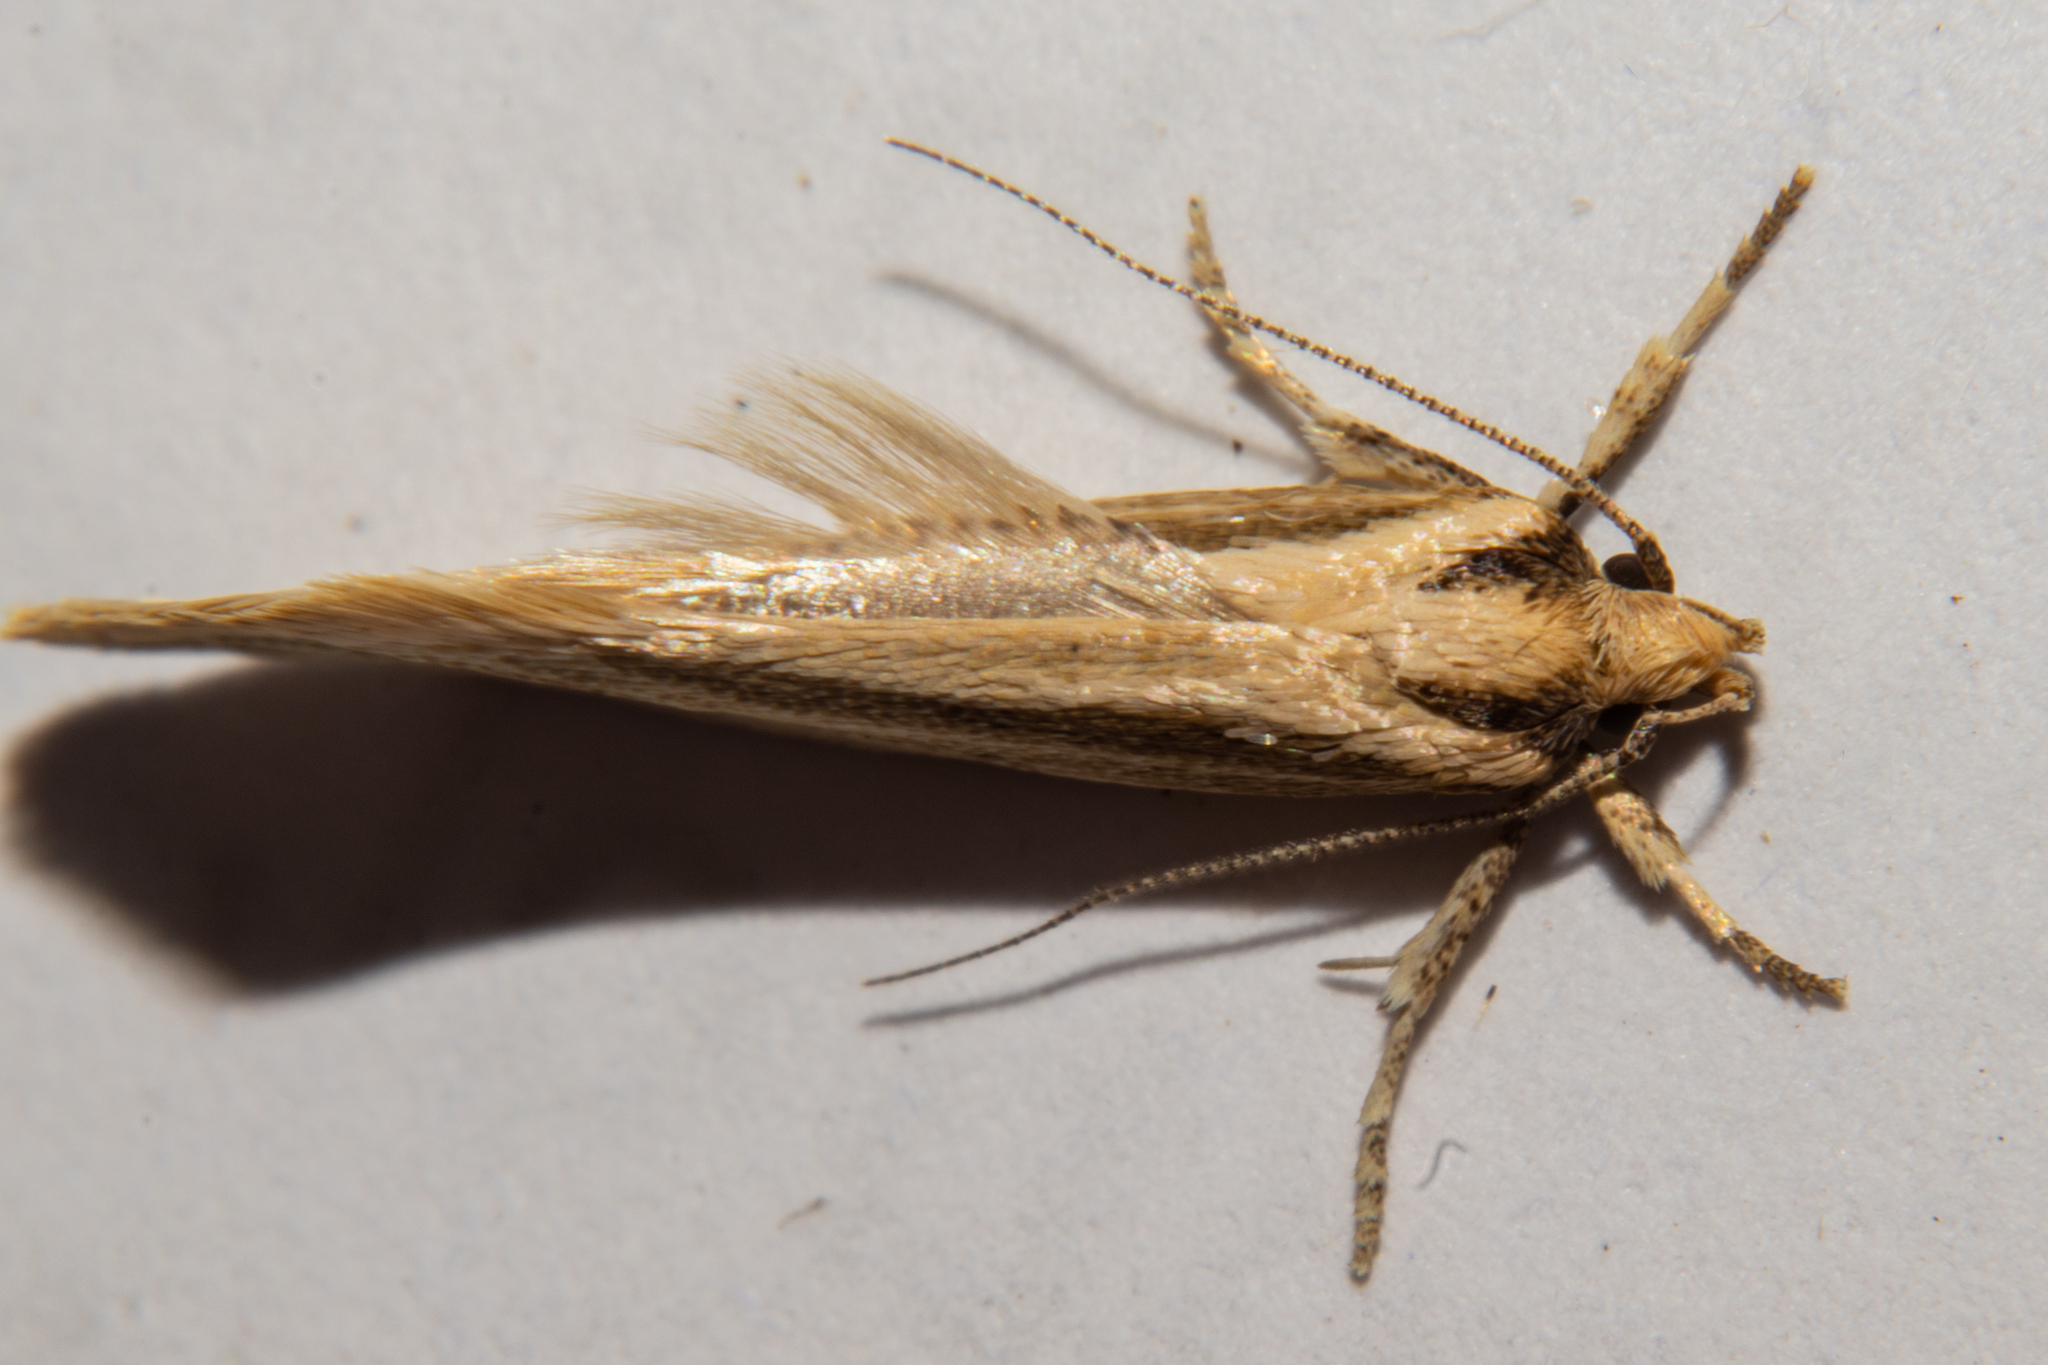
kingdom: Animalia
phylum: Arthropoda
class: Insecta
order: Lepidoptera
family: Oecophoridae
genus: Tingena
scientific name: Tingena chloradelpha
